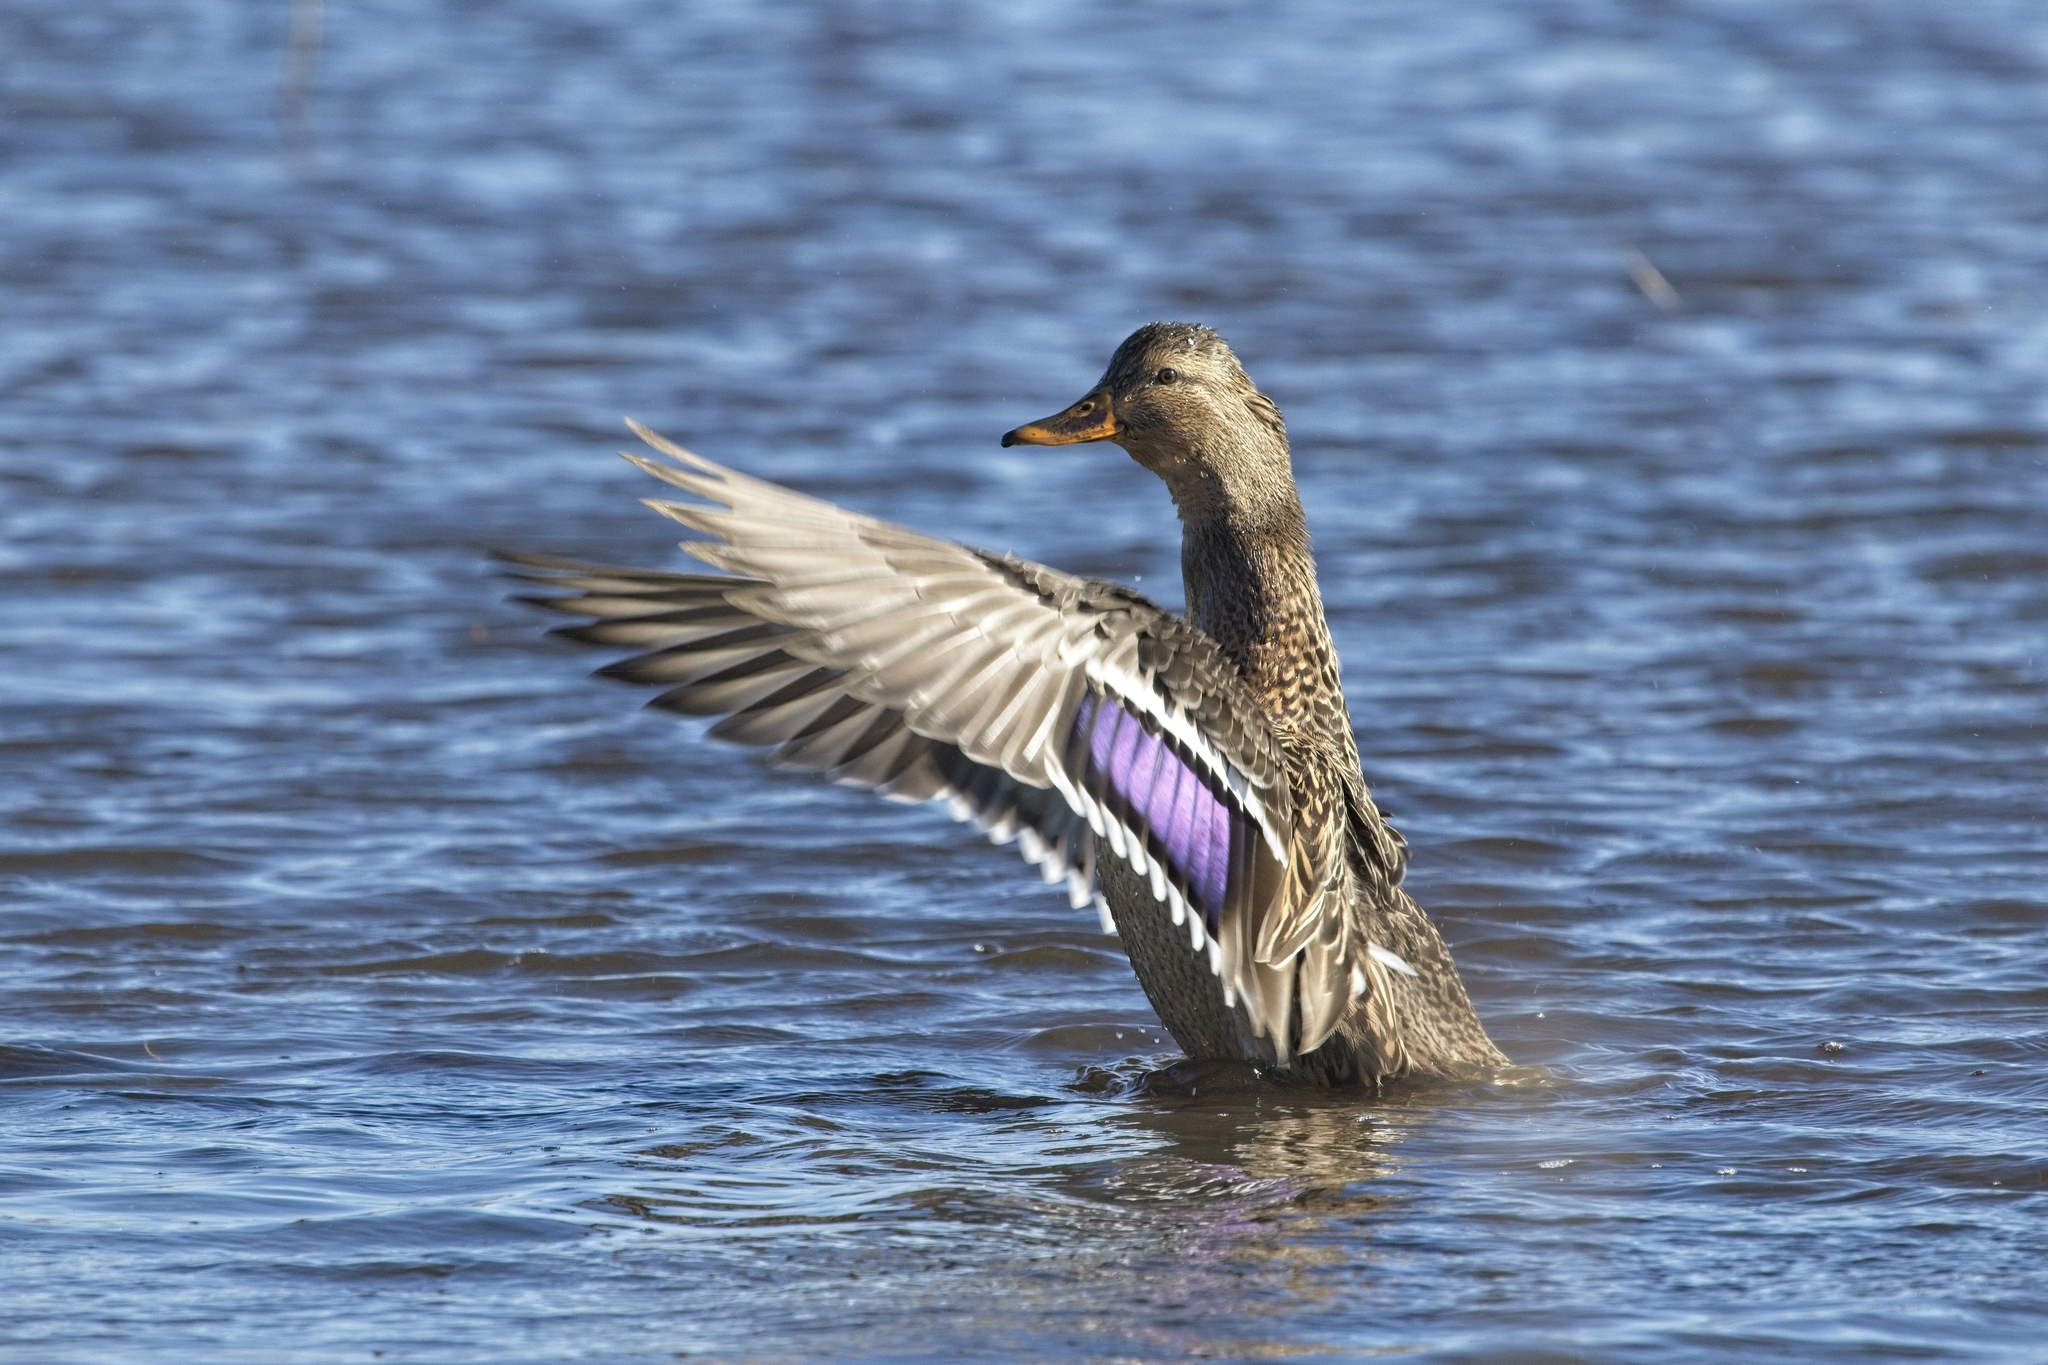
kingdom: Animalia
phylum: Chordata
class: Aves
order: Anseriformes
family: Anatidae
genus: Anas
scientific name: Anas platyrhynchos
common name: Mallard
